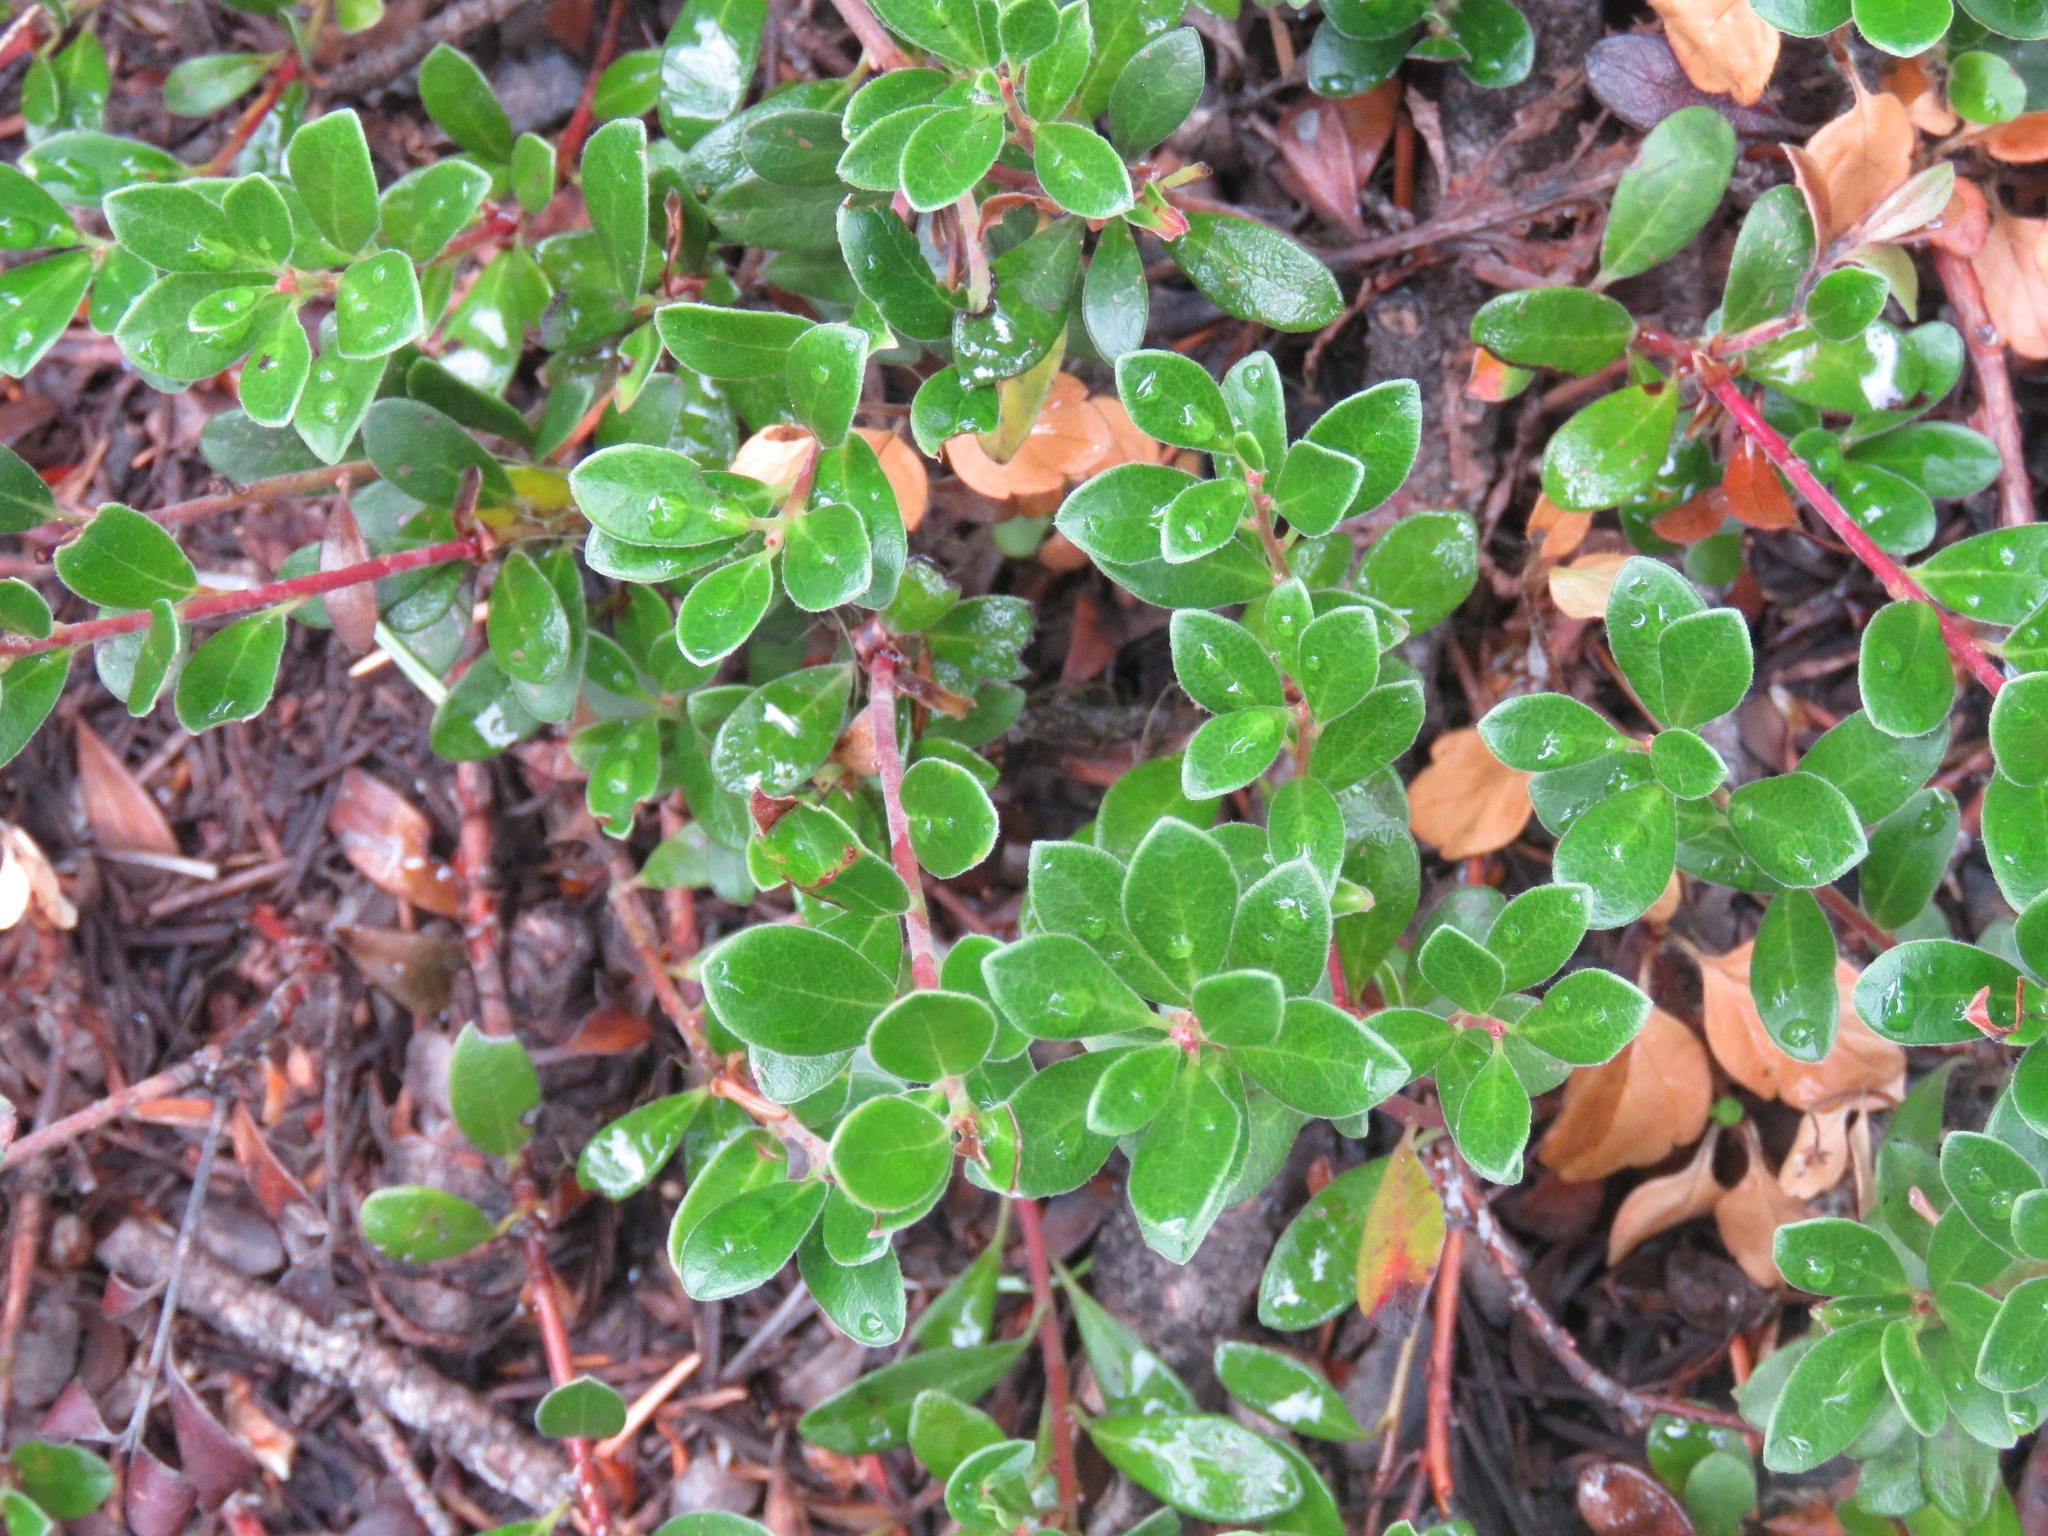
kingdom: Plantae
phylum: Tracheophyta
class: Magnoliopsida
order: Ericales
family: Ericaceae
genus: Arctostaphylos
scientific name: Arctostaphylos uva-ursi
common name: Bearberry
